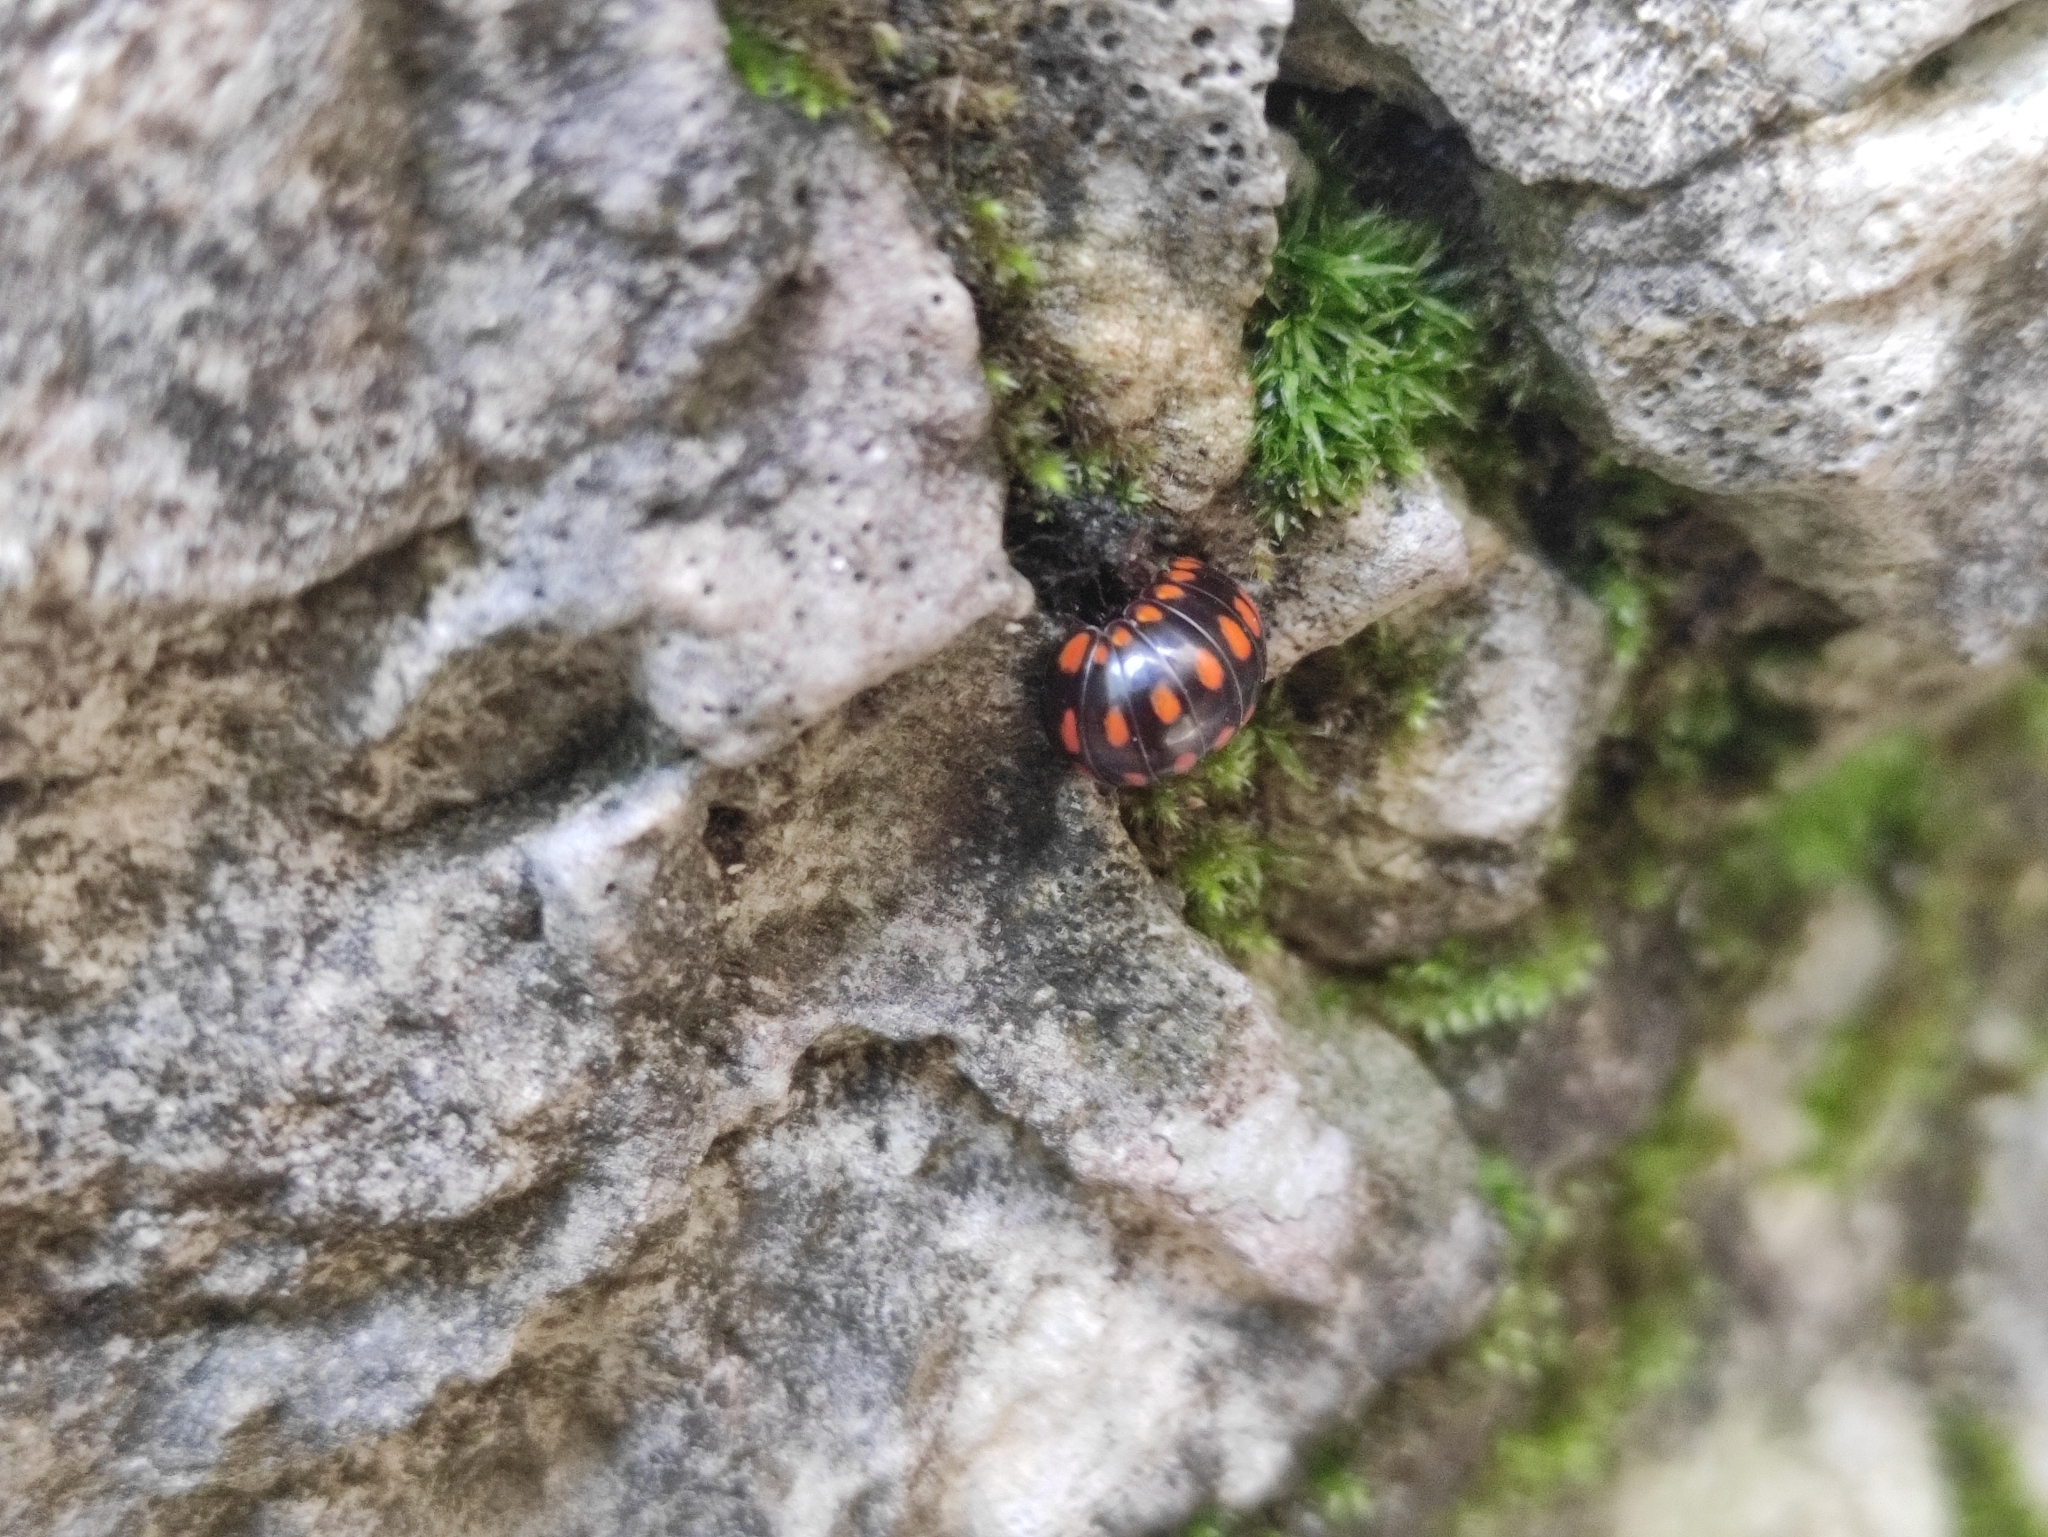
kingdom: Animalia
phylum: Arthropoda
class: Diplopoda
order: Glomerida
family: Glomeridae
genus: Glomeris
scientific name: Glomeris guttata
